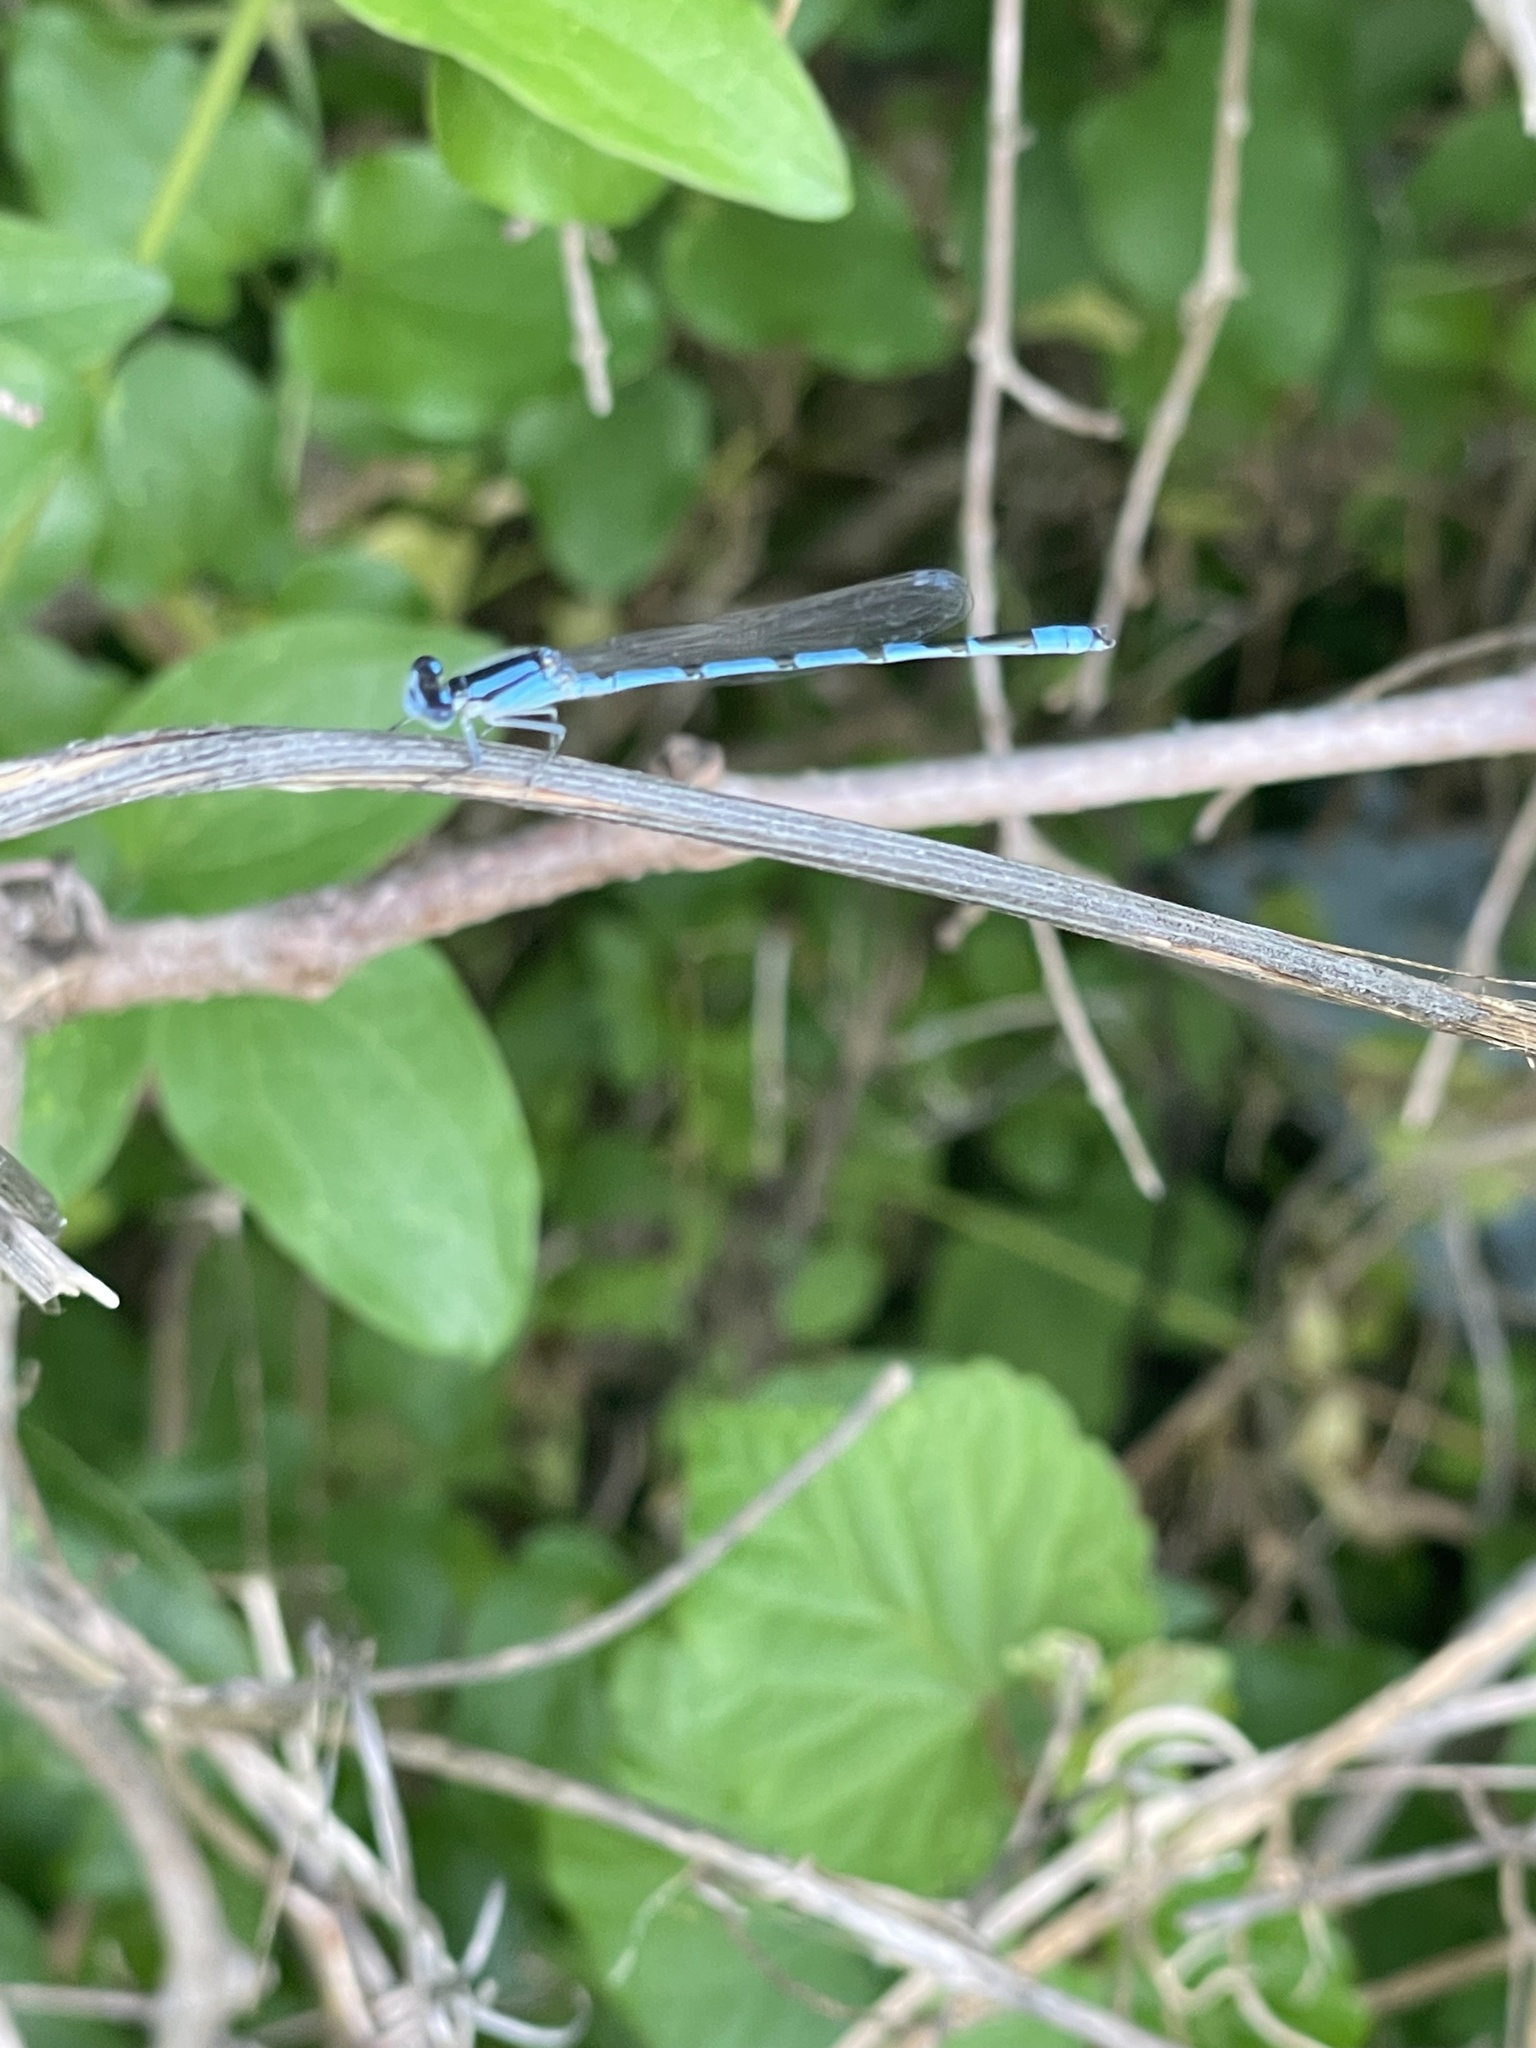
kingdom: Animalia
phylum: Arthropoda
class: Insecta
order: Odonata
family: Coenagrionidae
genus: Enallagma
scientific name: Enallagma civile
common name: Damselfly
